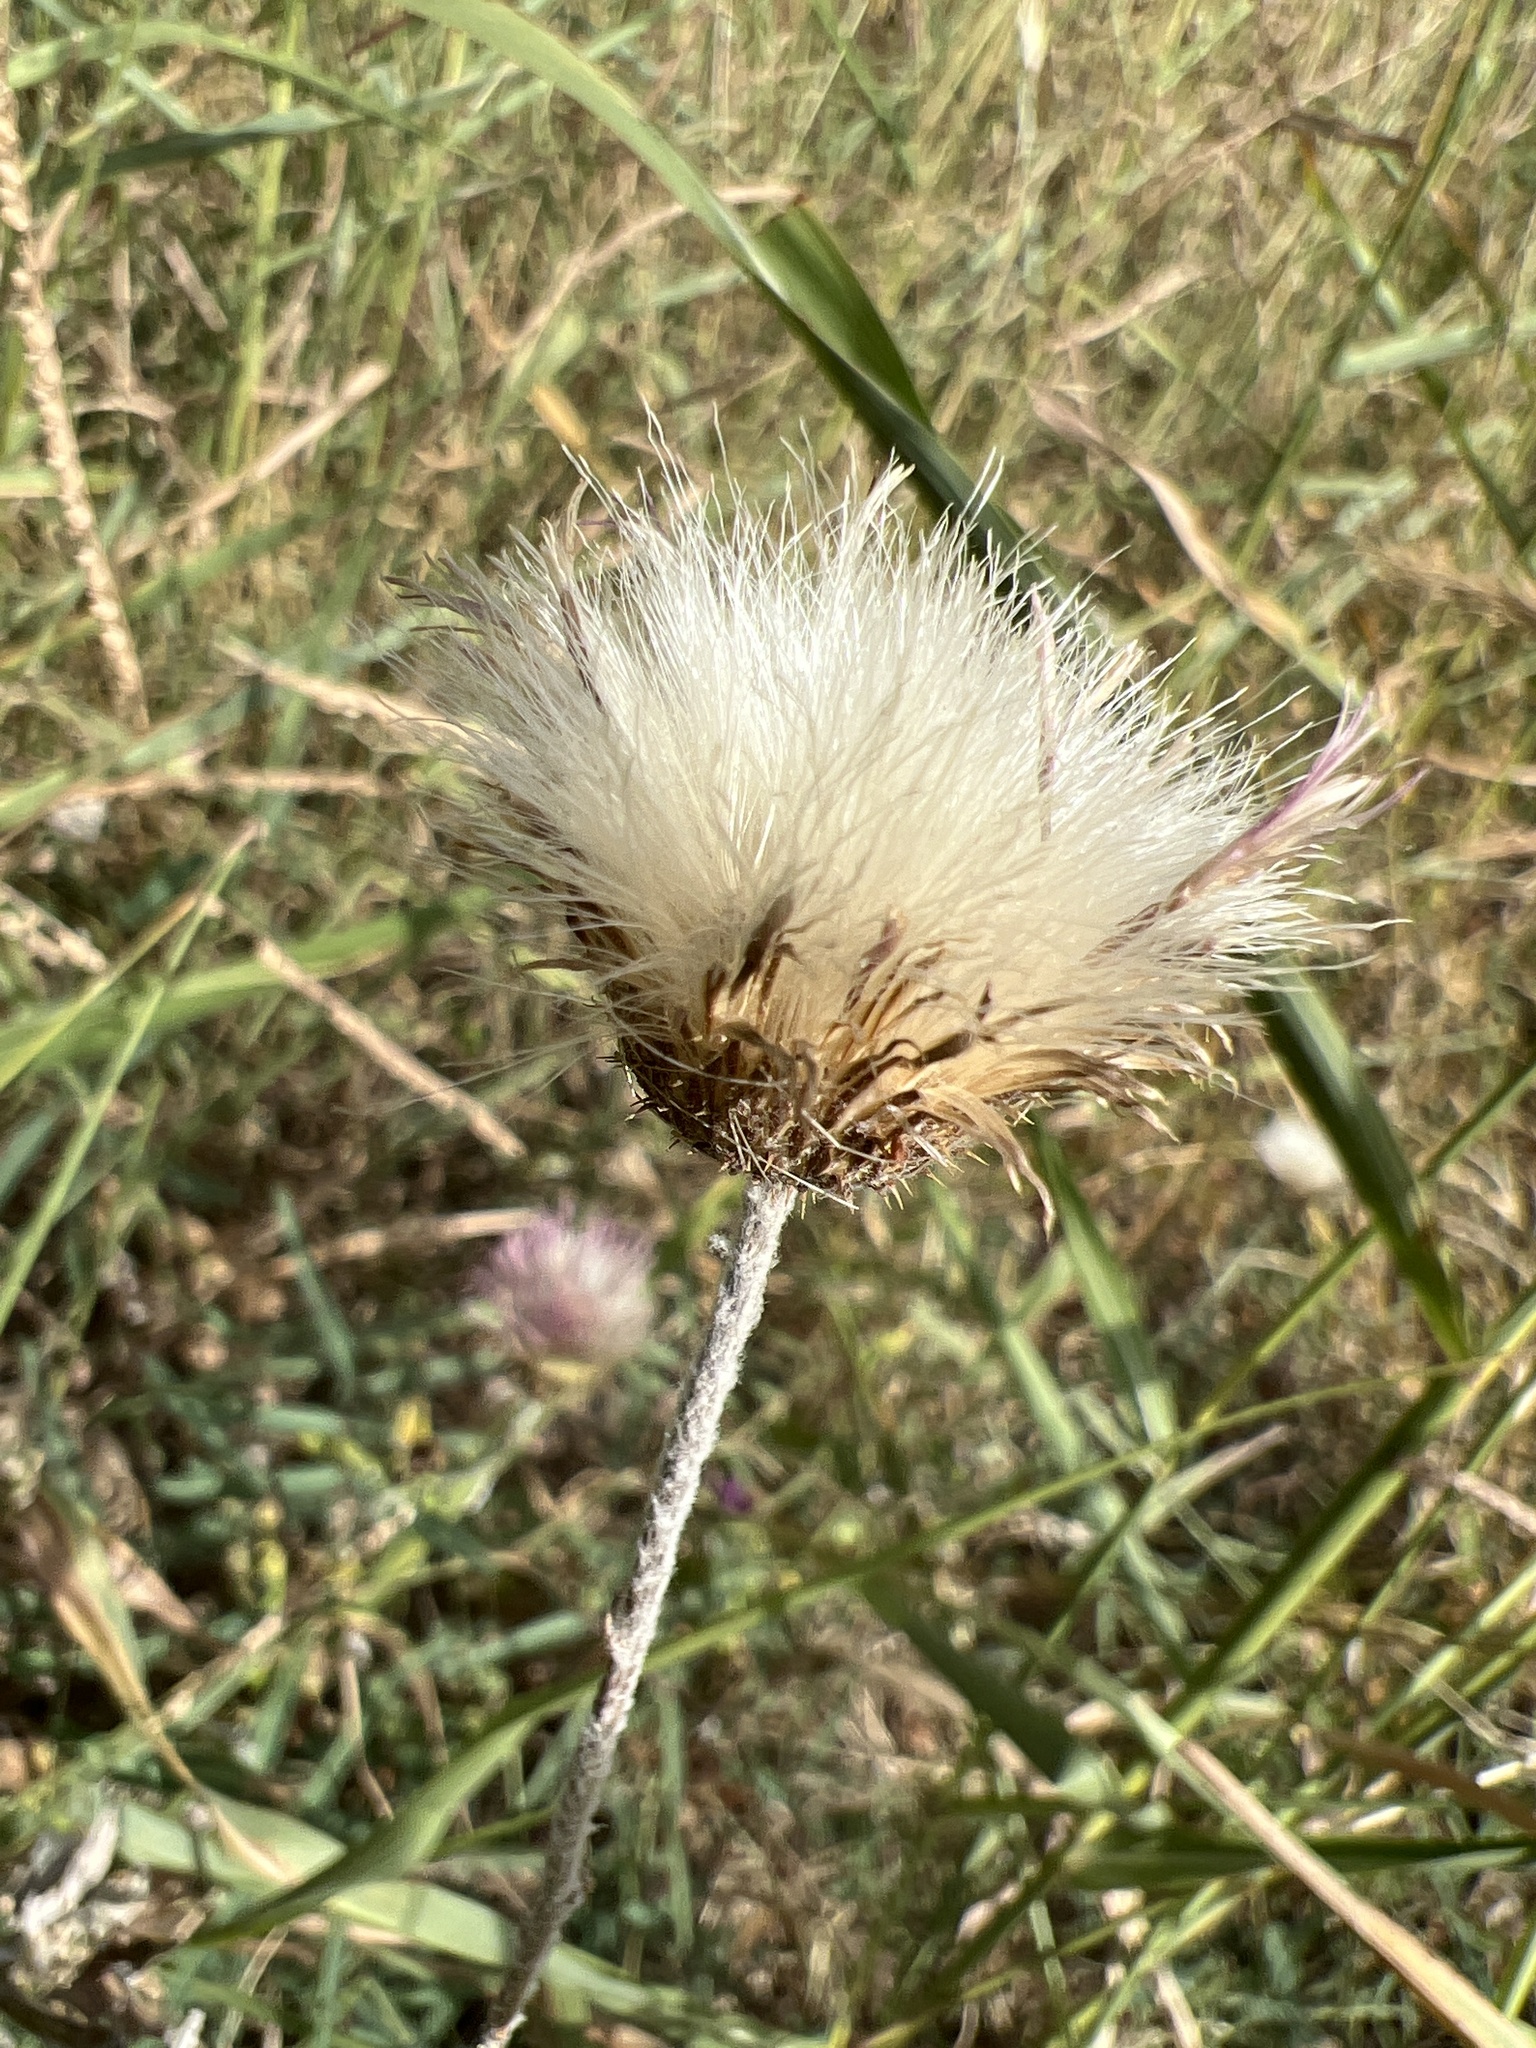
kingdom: Plantae
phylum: Tracheophyta
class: Magnoliopsida
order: Asterales
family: Asteraceae
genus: Plectocephalus
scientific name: Plectocephalus americanus
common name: American basket-flower
